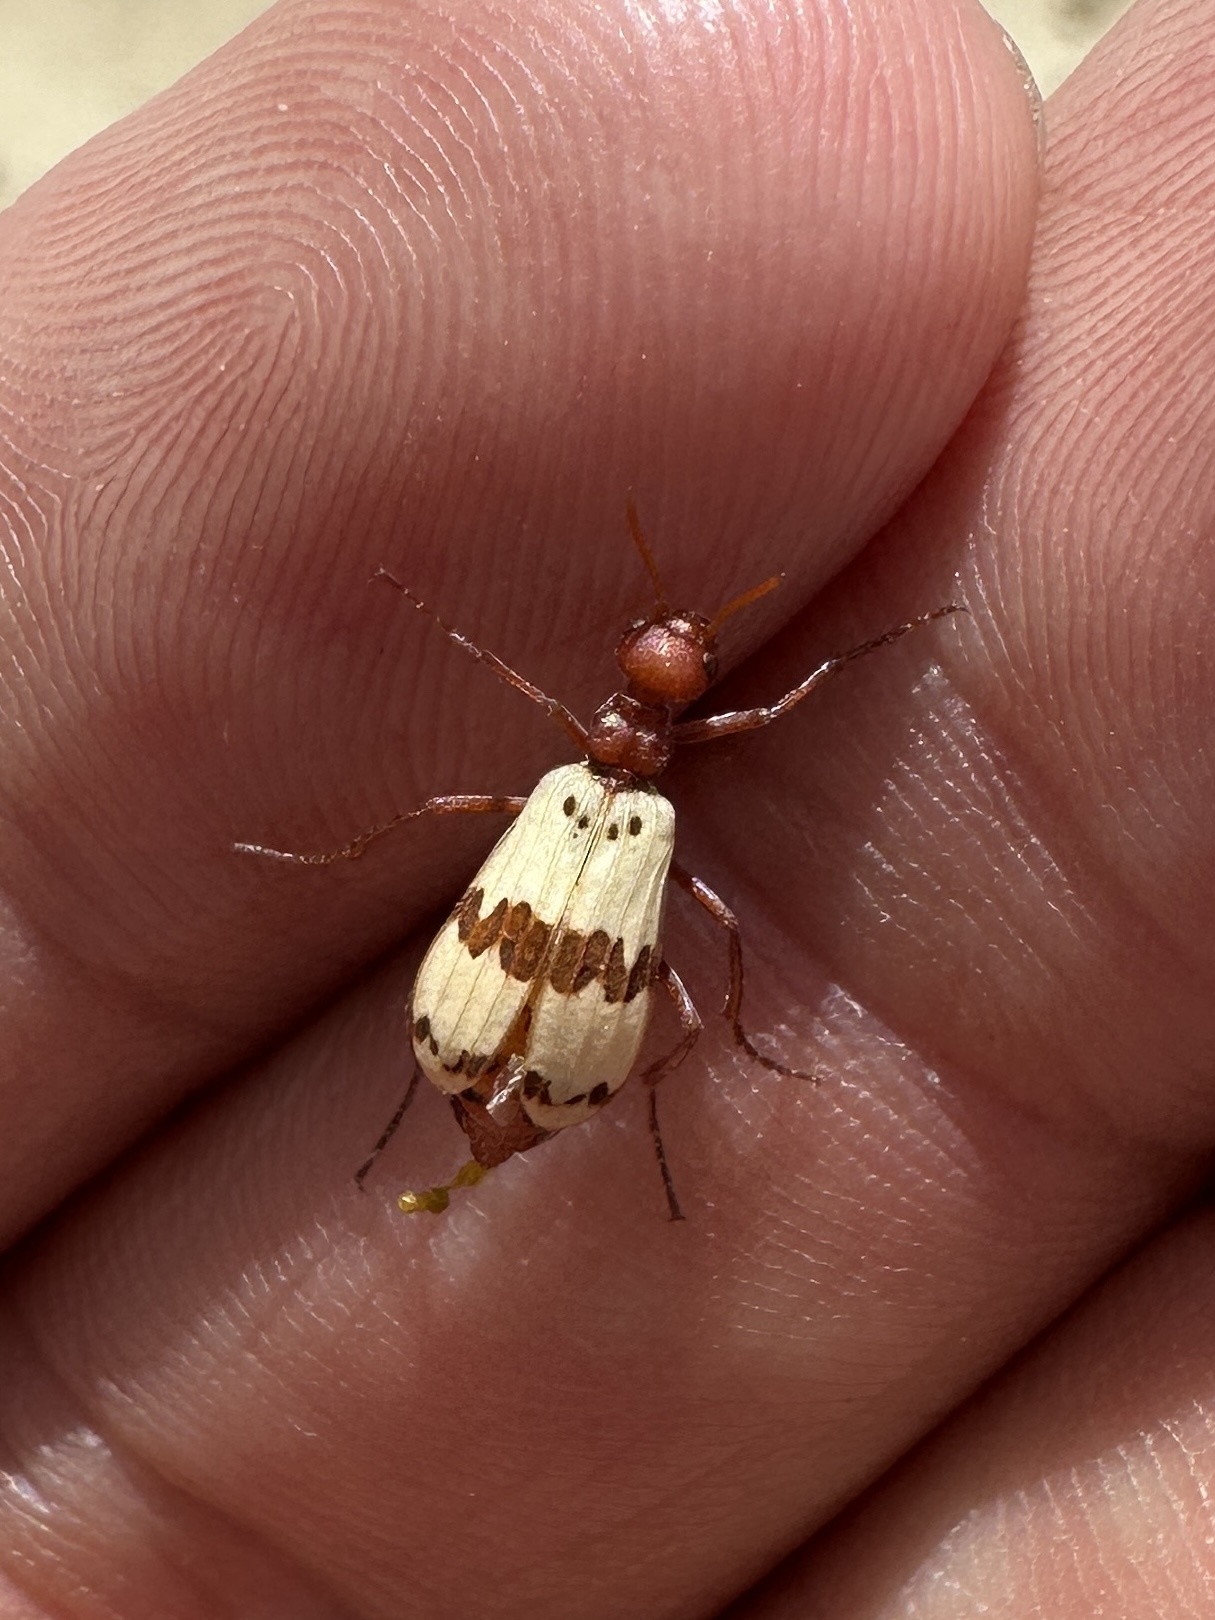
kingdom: Animalia
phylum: Arthropoda
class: Insecta
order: Coleoptera
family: Meloidae
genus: Pleuropasta
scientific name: Pleuropasta mirabilis
